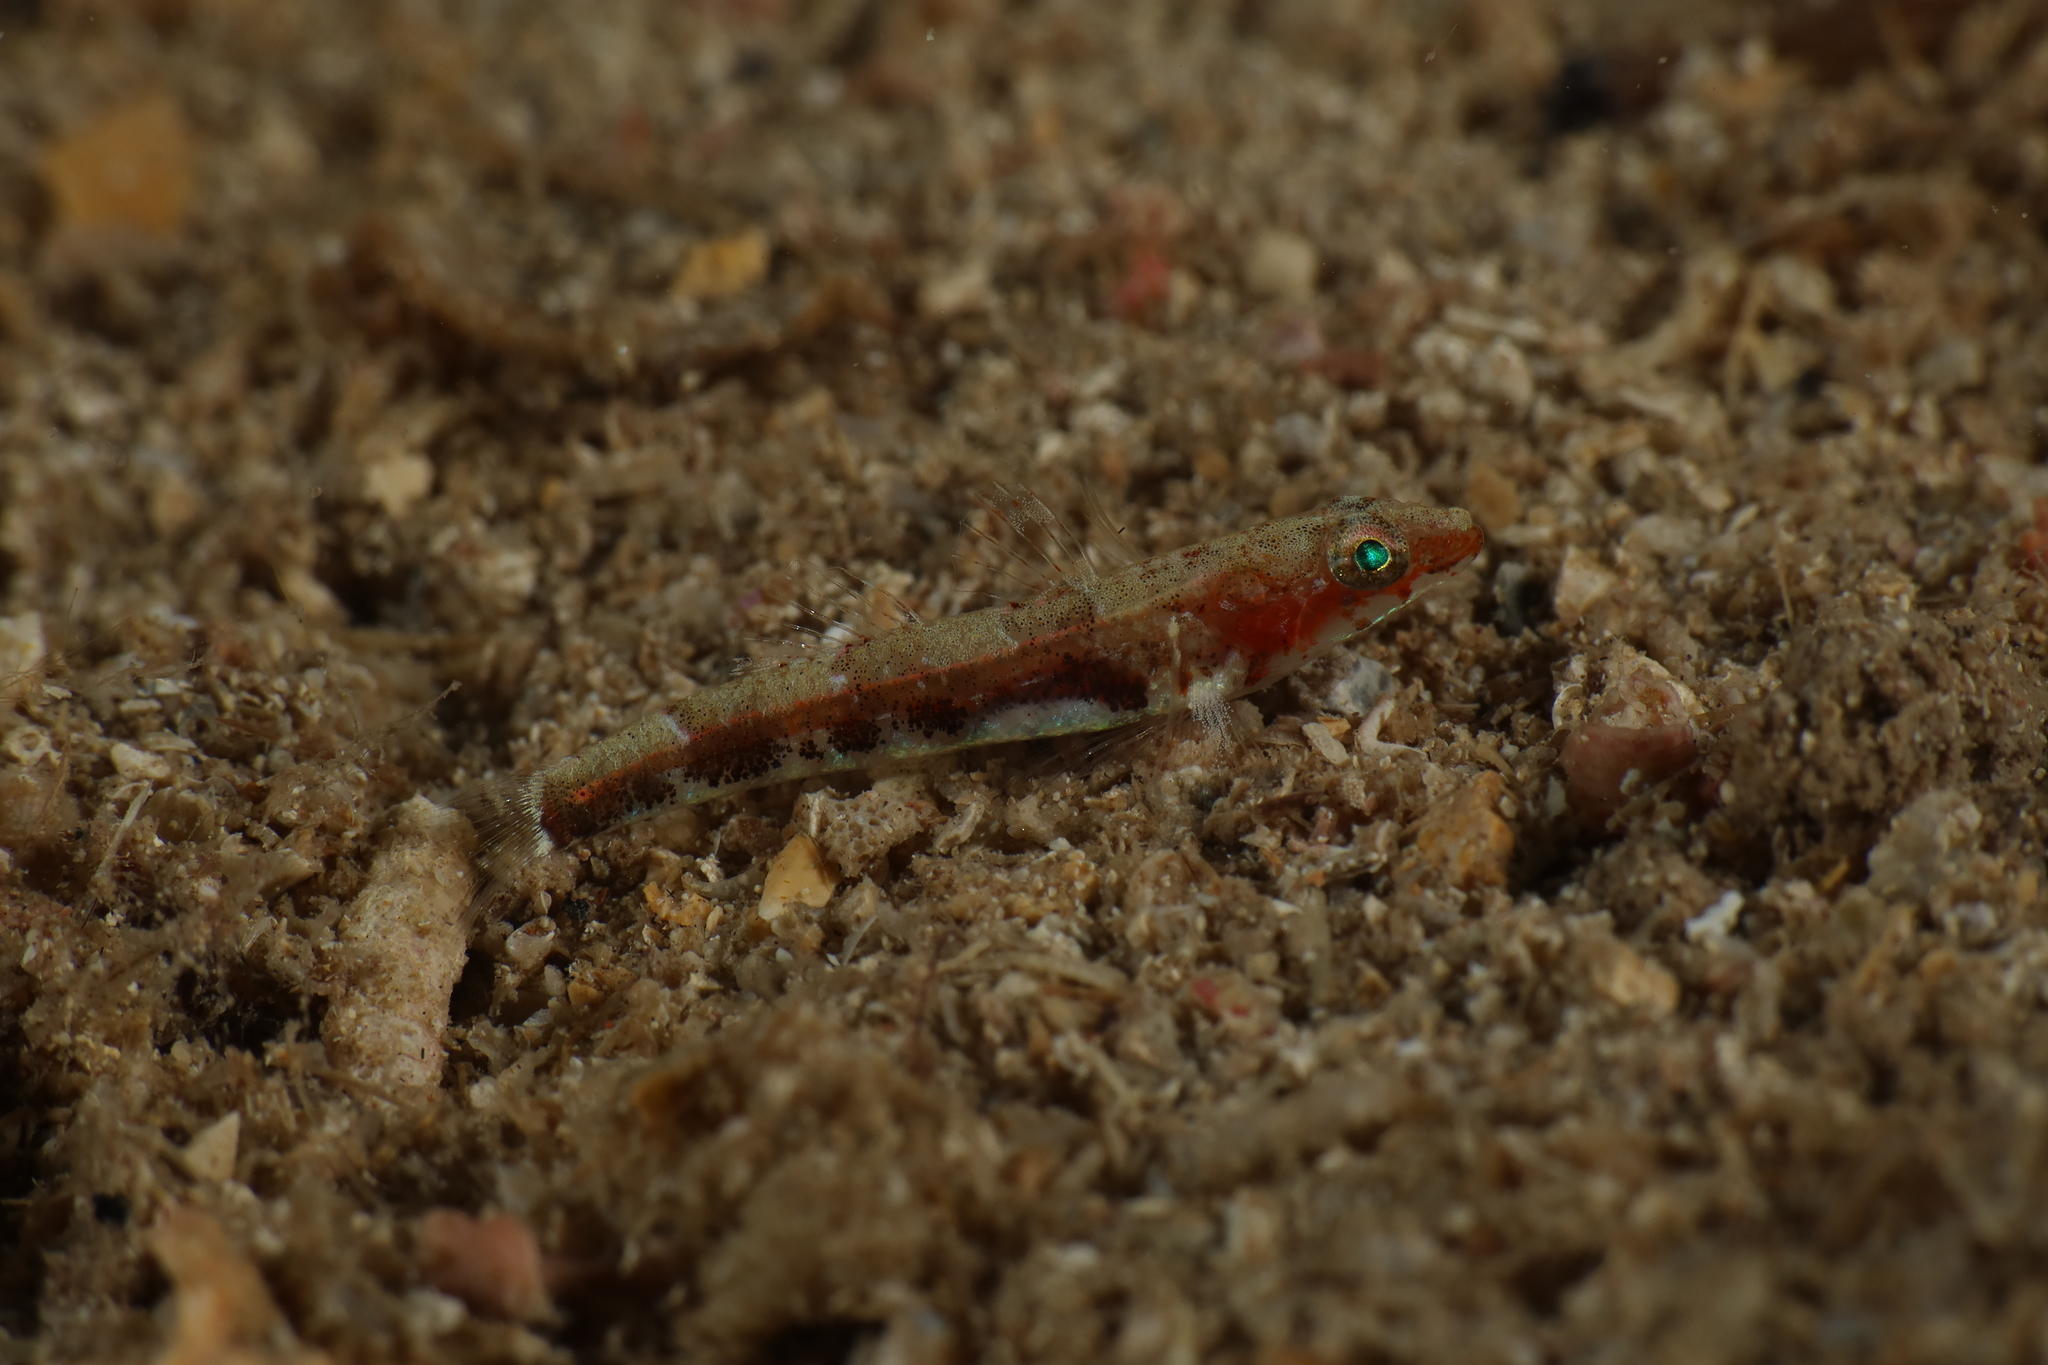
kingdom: Animalia
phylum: Chordata
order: Perciformes
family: Gobiidae
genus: Speleogobius
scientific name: Speleogobius llorisi
